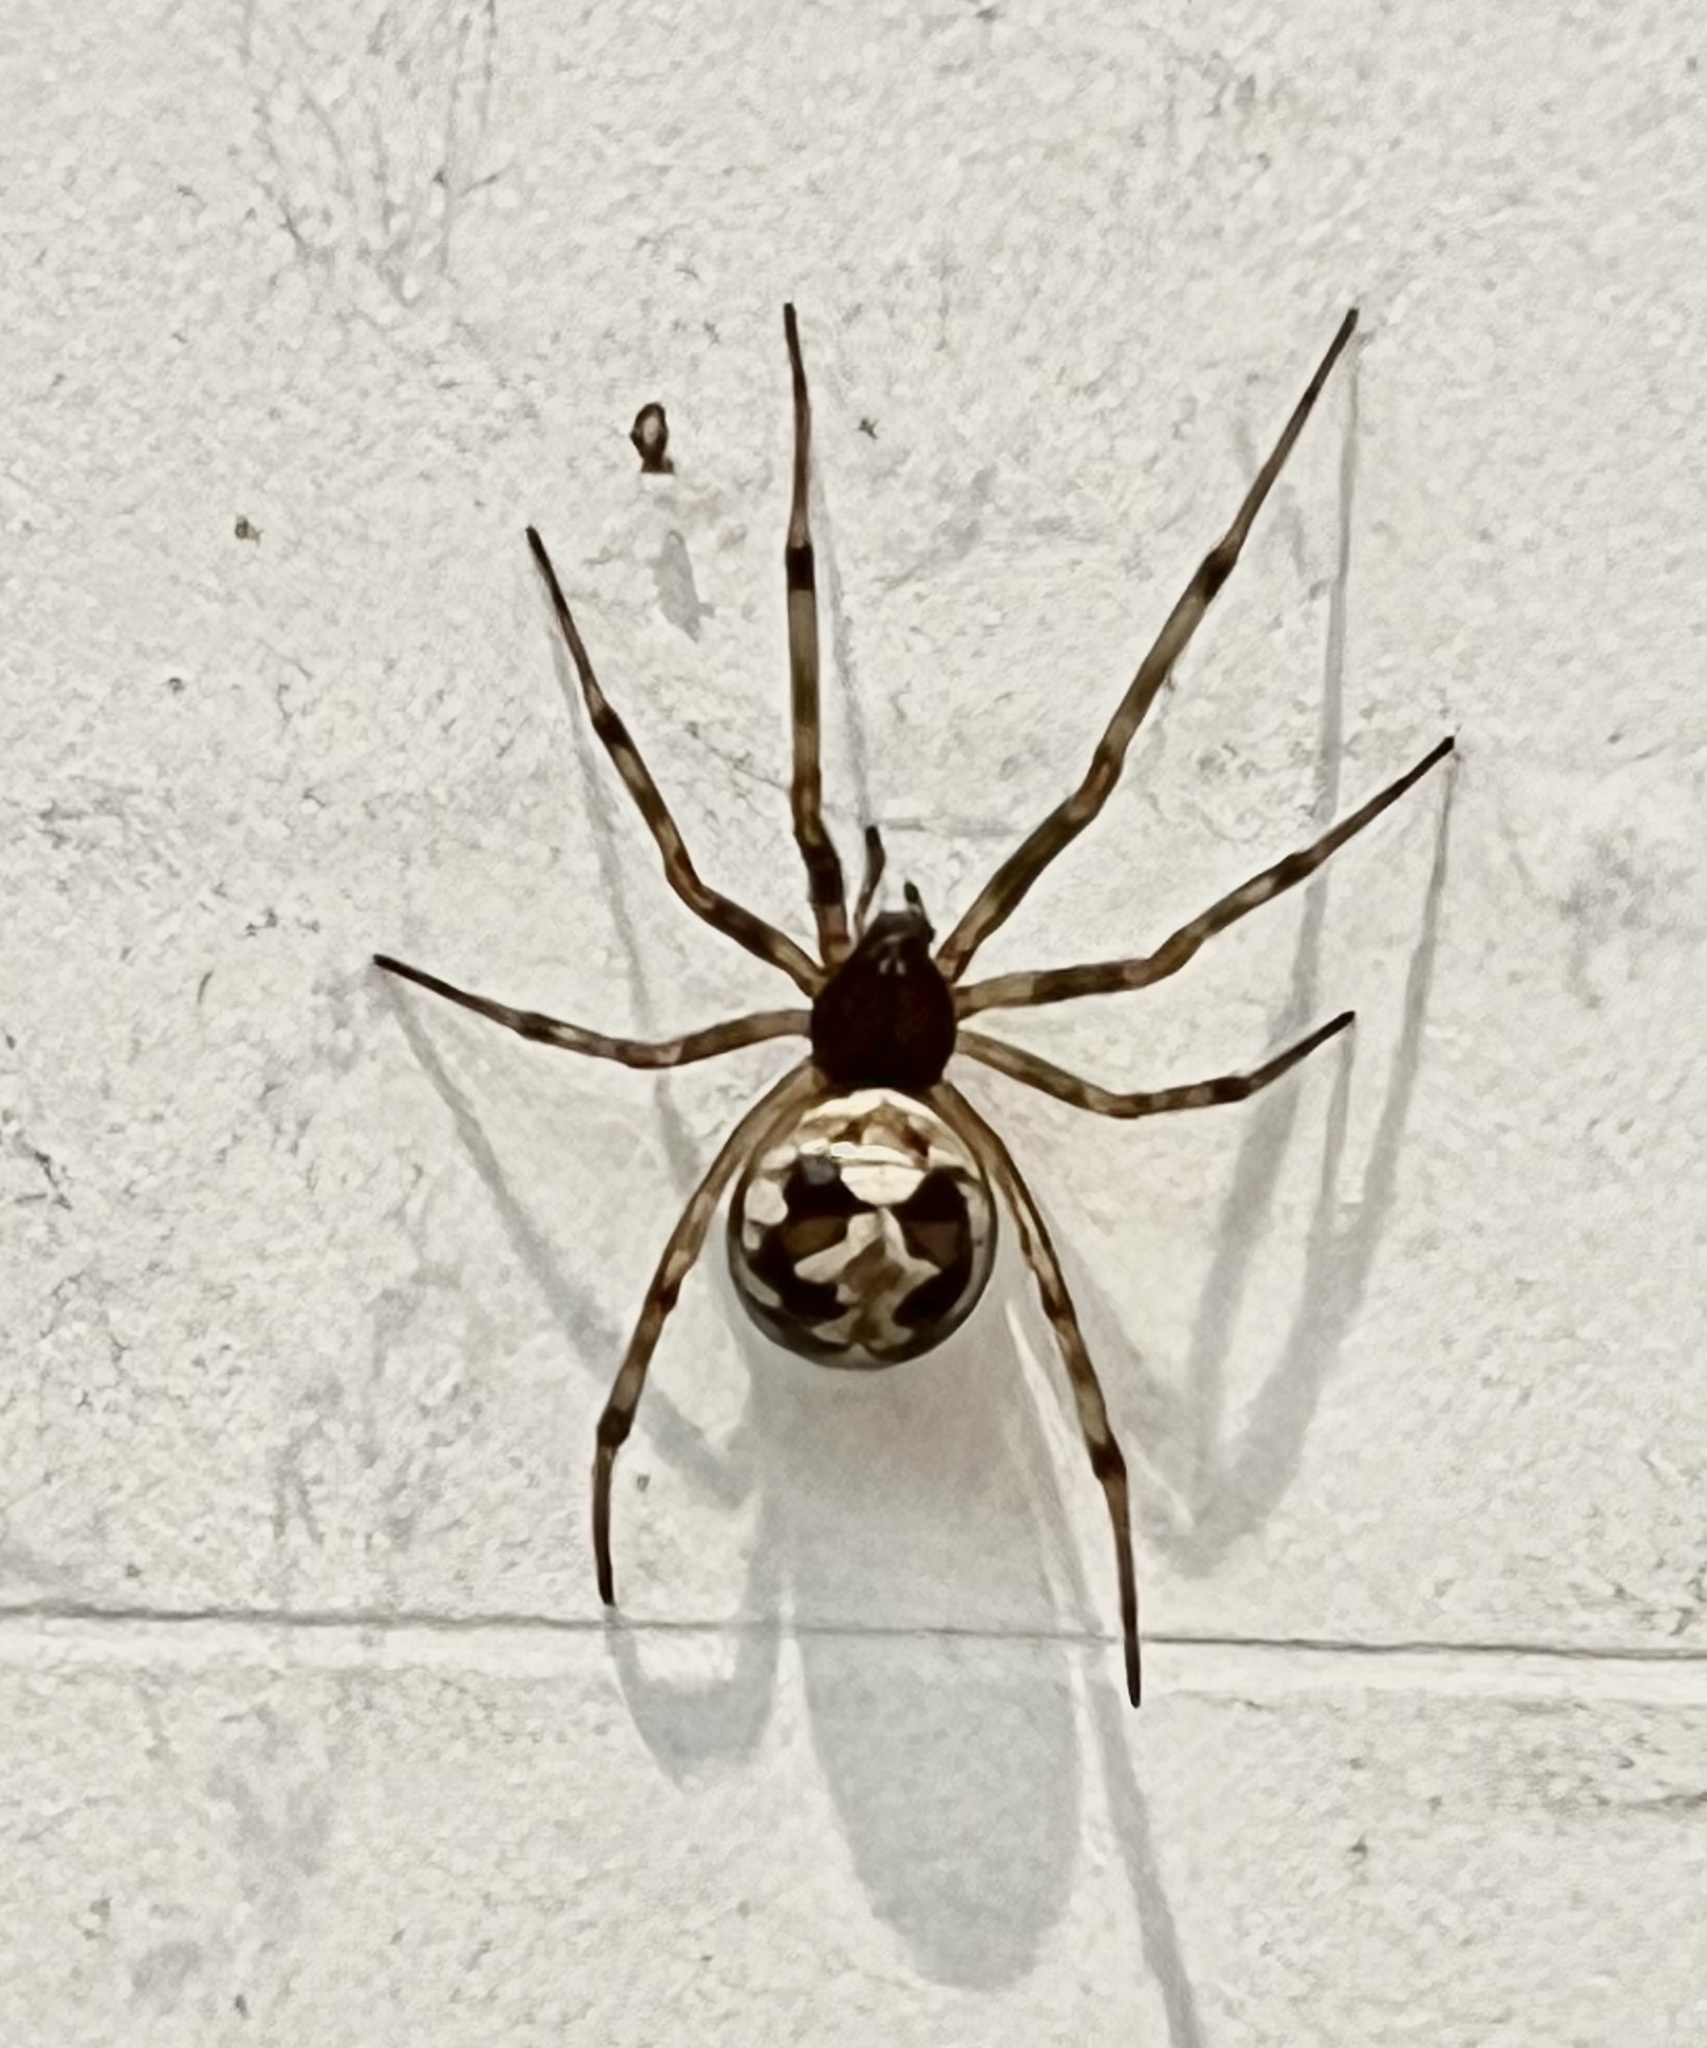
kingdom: Animalia
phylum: Arthropoda
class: Arachnida
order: Araneae
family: Theridiidae
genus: Steatoda
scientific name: Steatoda triangulosa
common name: Triangulate bud spider
